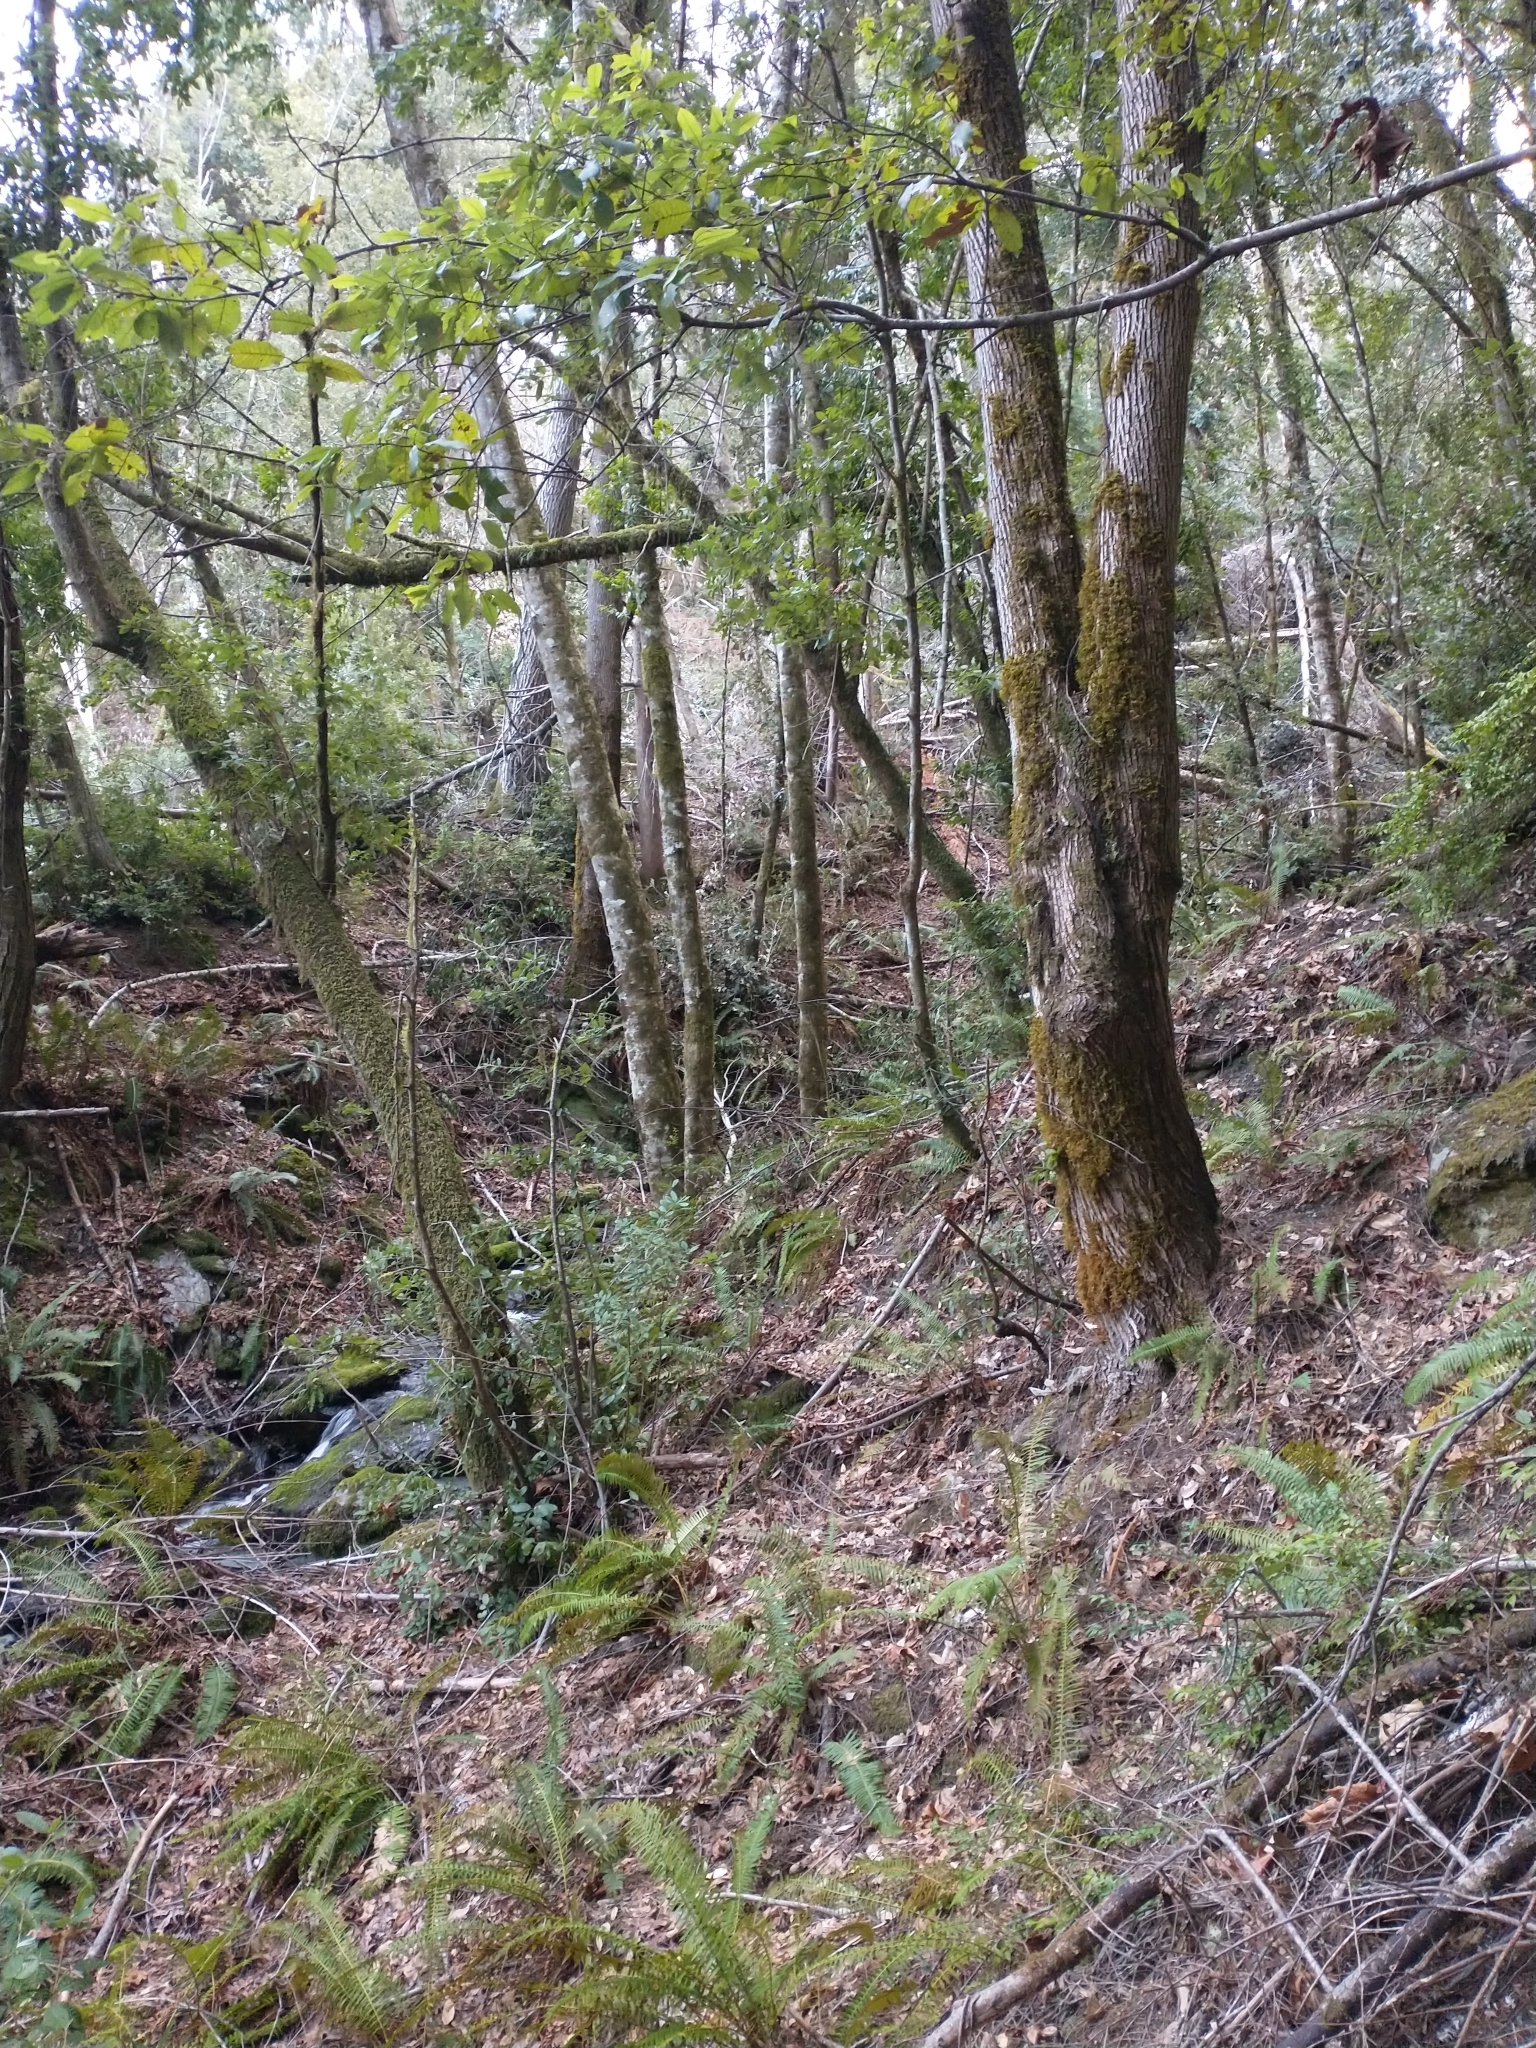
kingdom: Plantae
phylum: Tracheophyta
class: Polypodiopsida
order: Polypodiales
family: Dryopteridaceae
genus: Polystichum
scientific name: Polystichum munitum
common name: Western sword-fern
